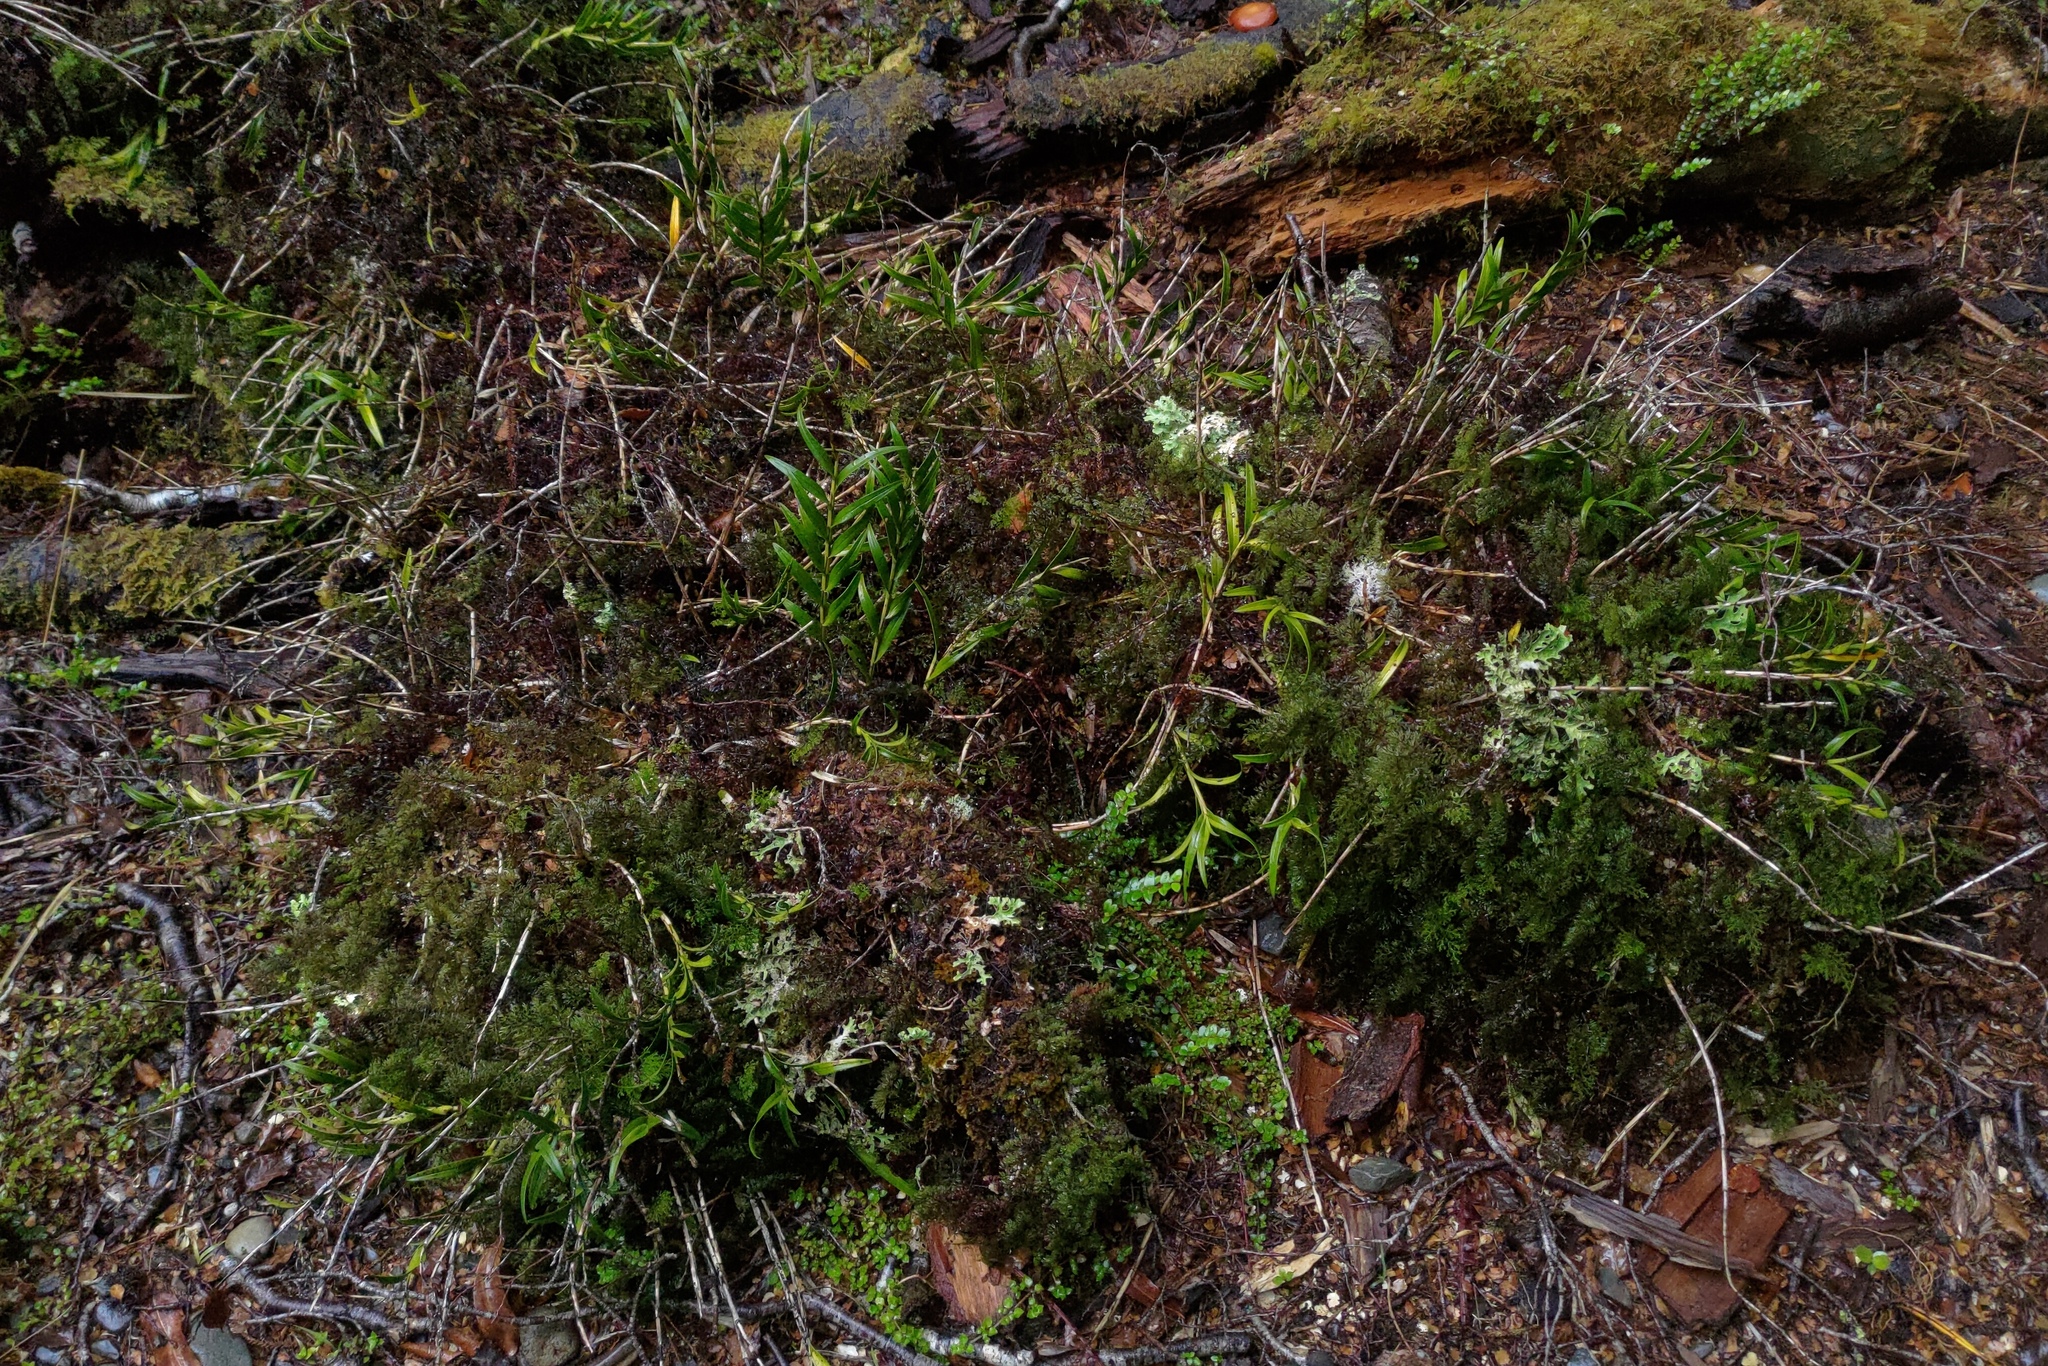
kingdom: Plantae
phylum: Tracheophyta
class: Liliopsida
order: Asparagales
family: Orchidaceae
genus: Earina
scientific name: Earina autumnalis
